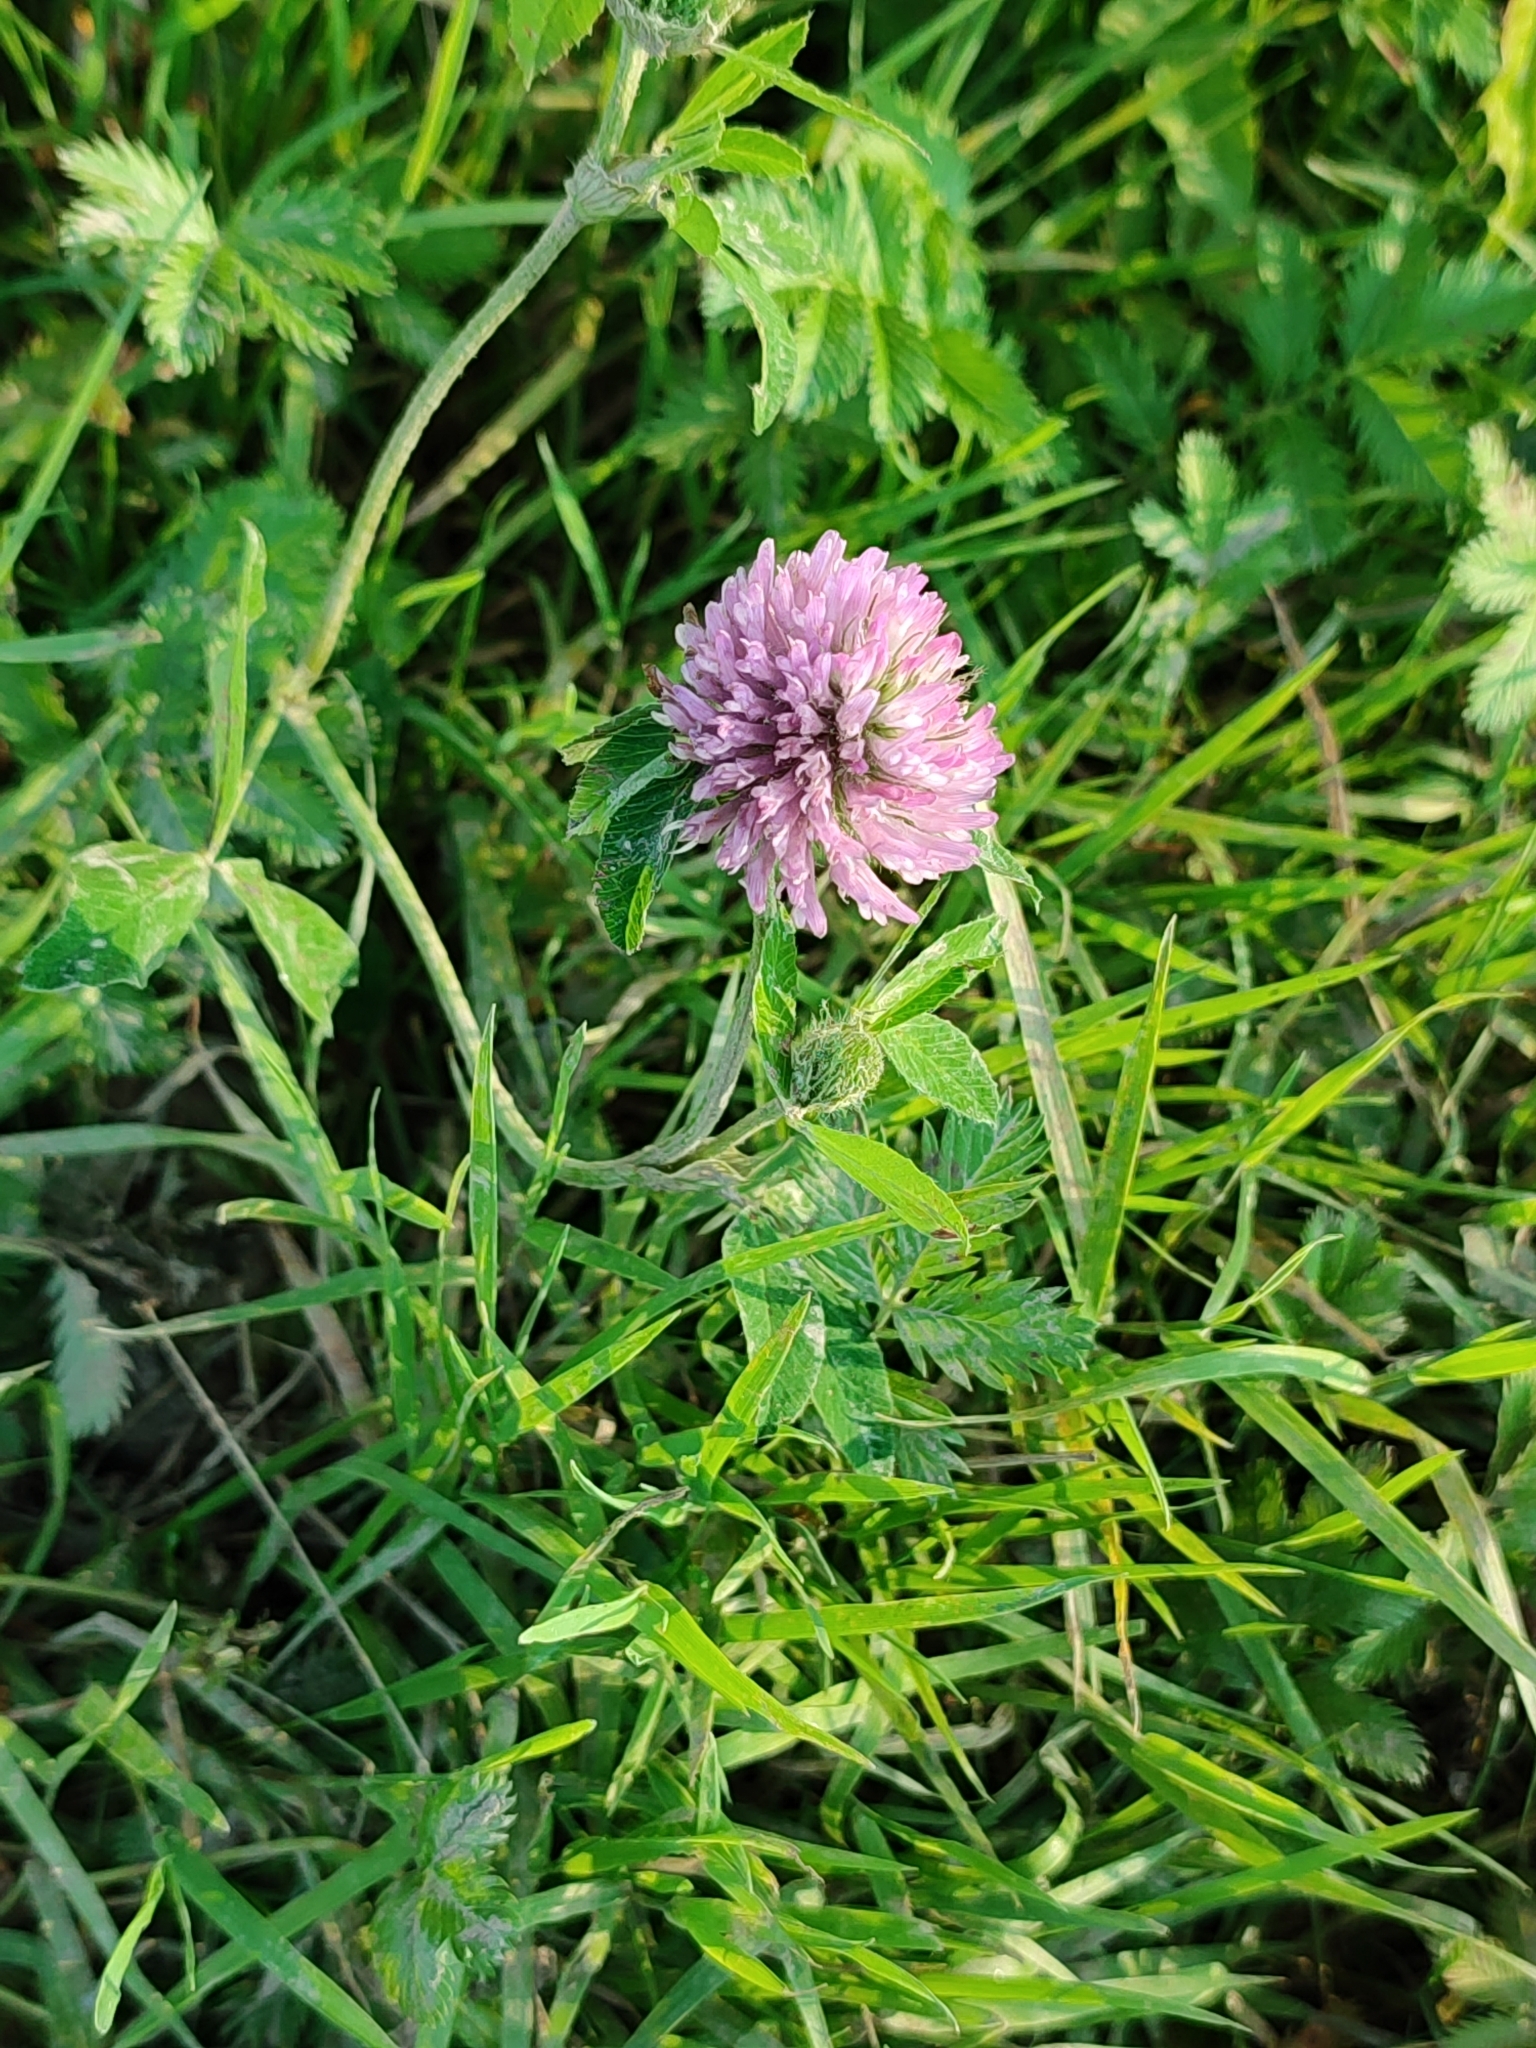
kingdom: Plantae
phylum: Tracheophyta
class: Magnoliopsida
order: Fabales
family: Fabaceae
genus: Trifolium
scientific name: Trifolium pratense
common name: Red clover
